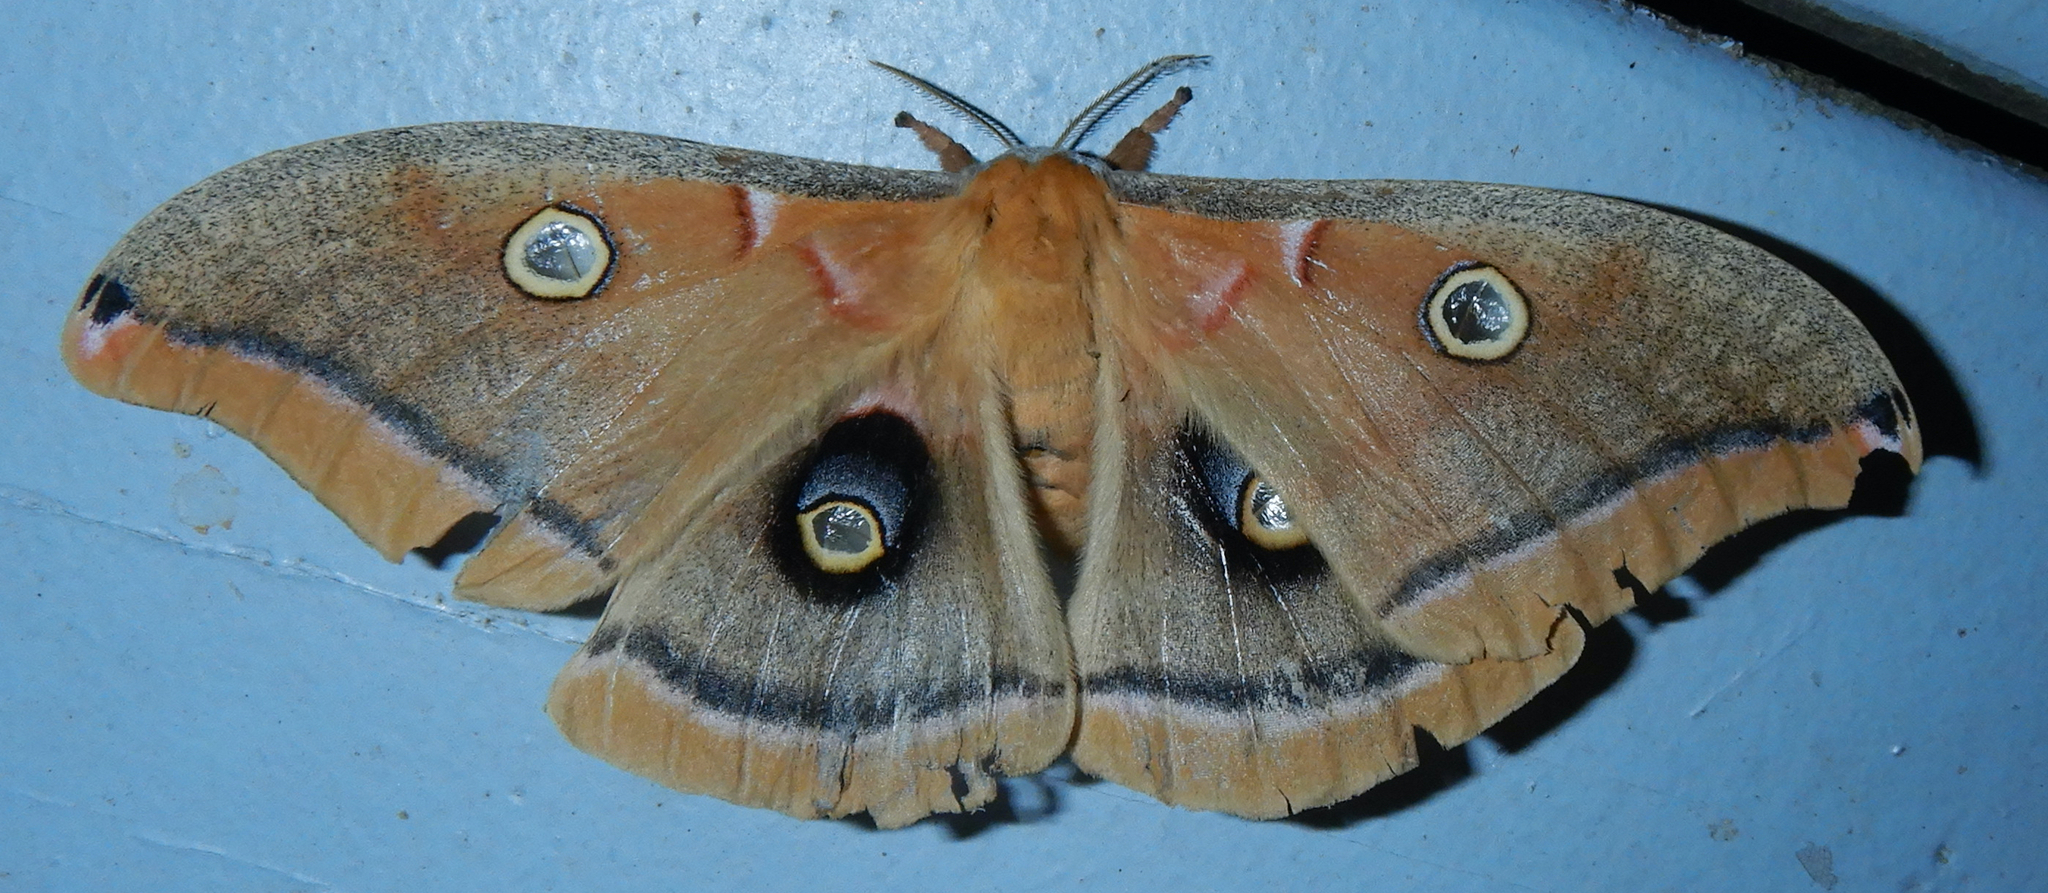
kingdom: Animalia
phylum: Arthropoda
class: Insecta
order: Lepidoptera
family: Saturniidae
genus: Antheraea
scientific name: Antheraea polyphemus
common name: Polyphemus moth
